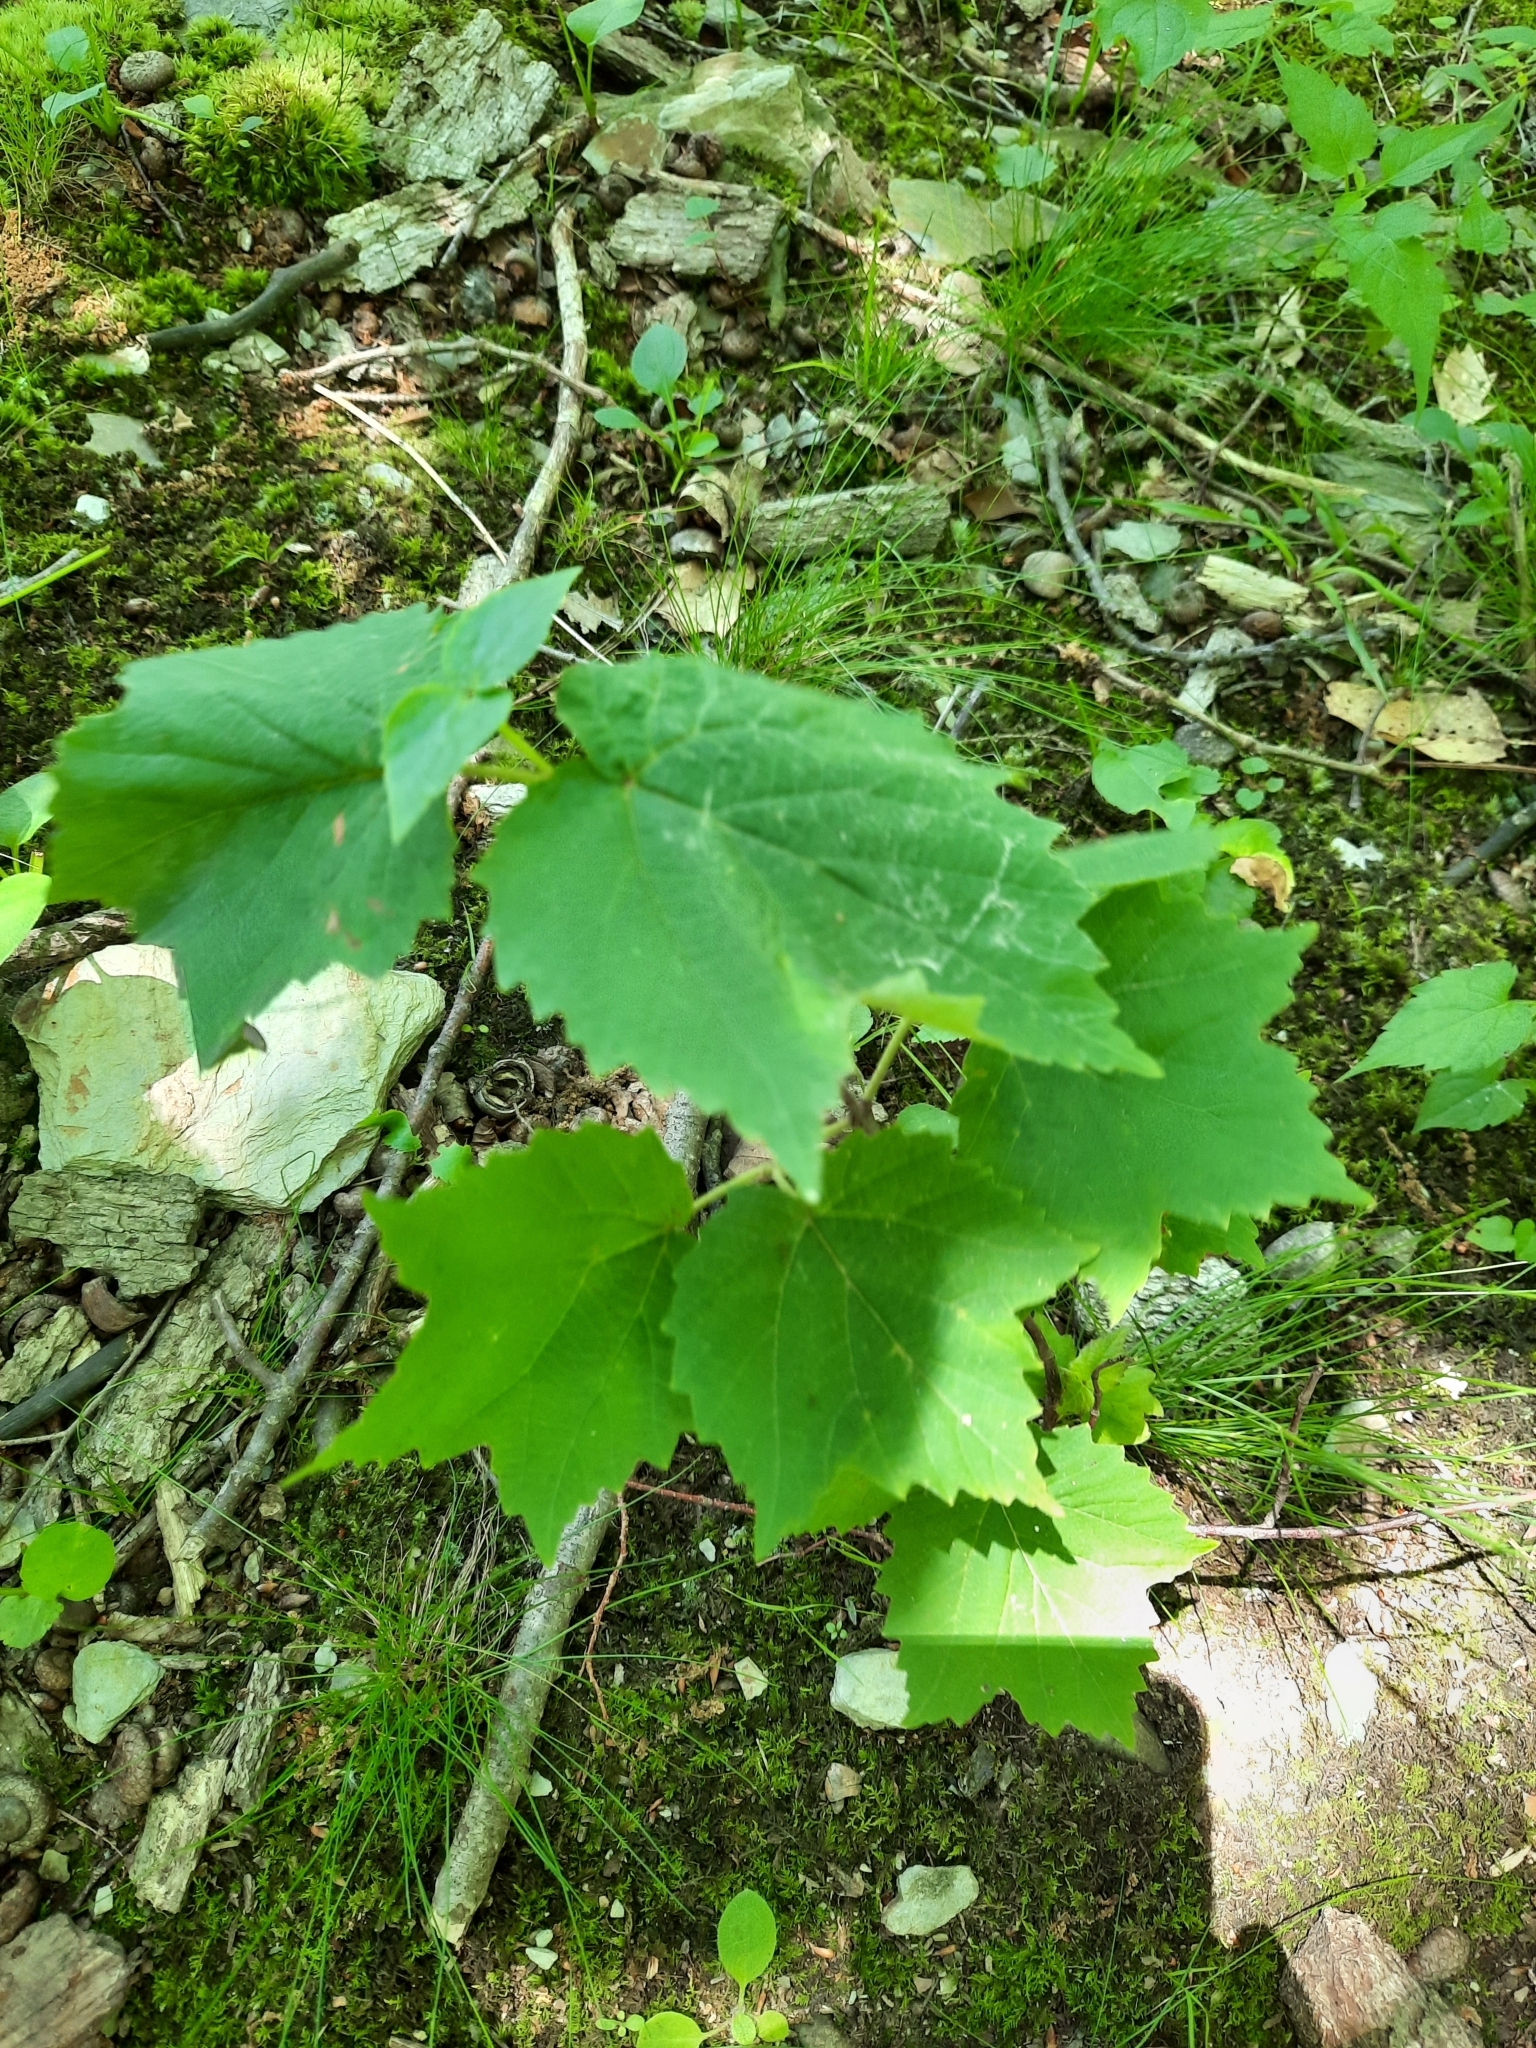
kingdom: Plantae
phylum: Tracheophyta
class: Magnoliopsida
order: Dipsacales
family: Viburnaceae
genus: Viburnum
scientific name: Viburnum acerifolium
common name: Dockmackie
